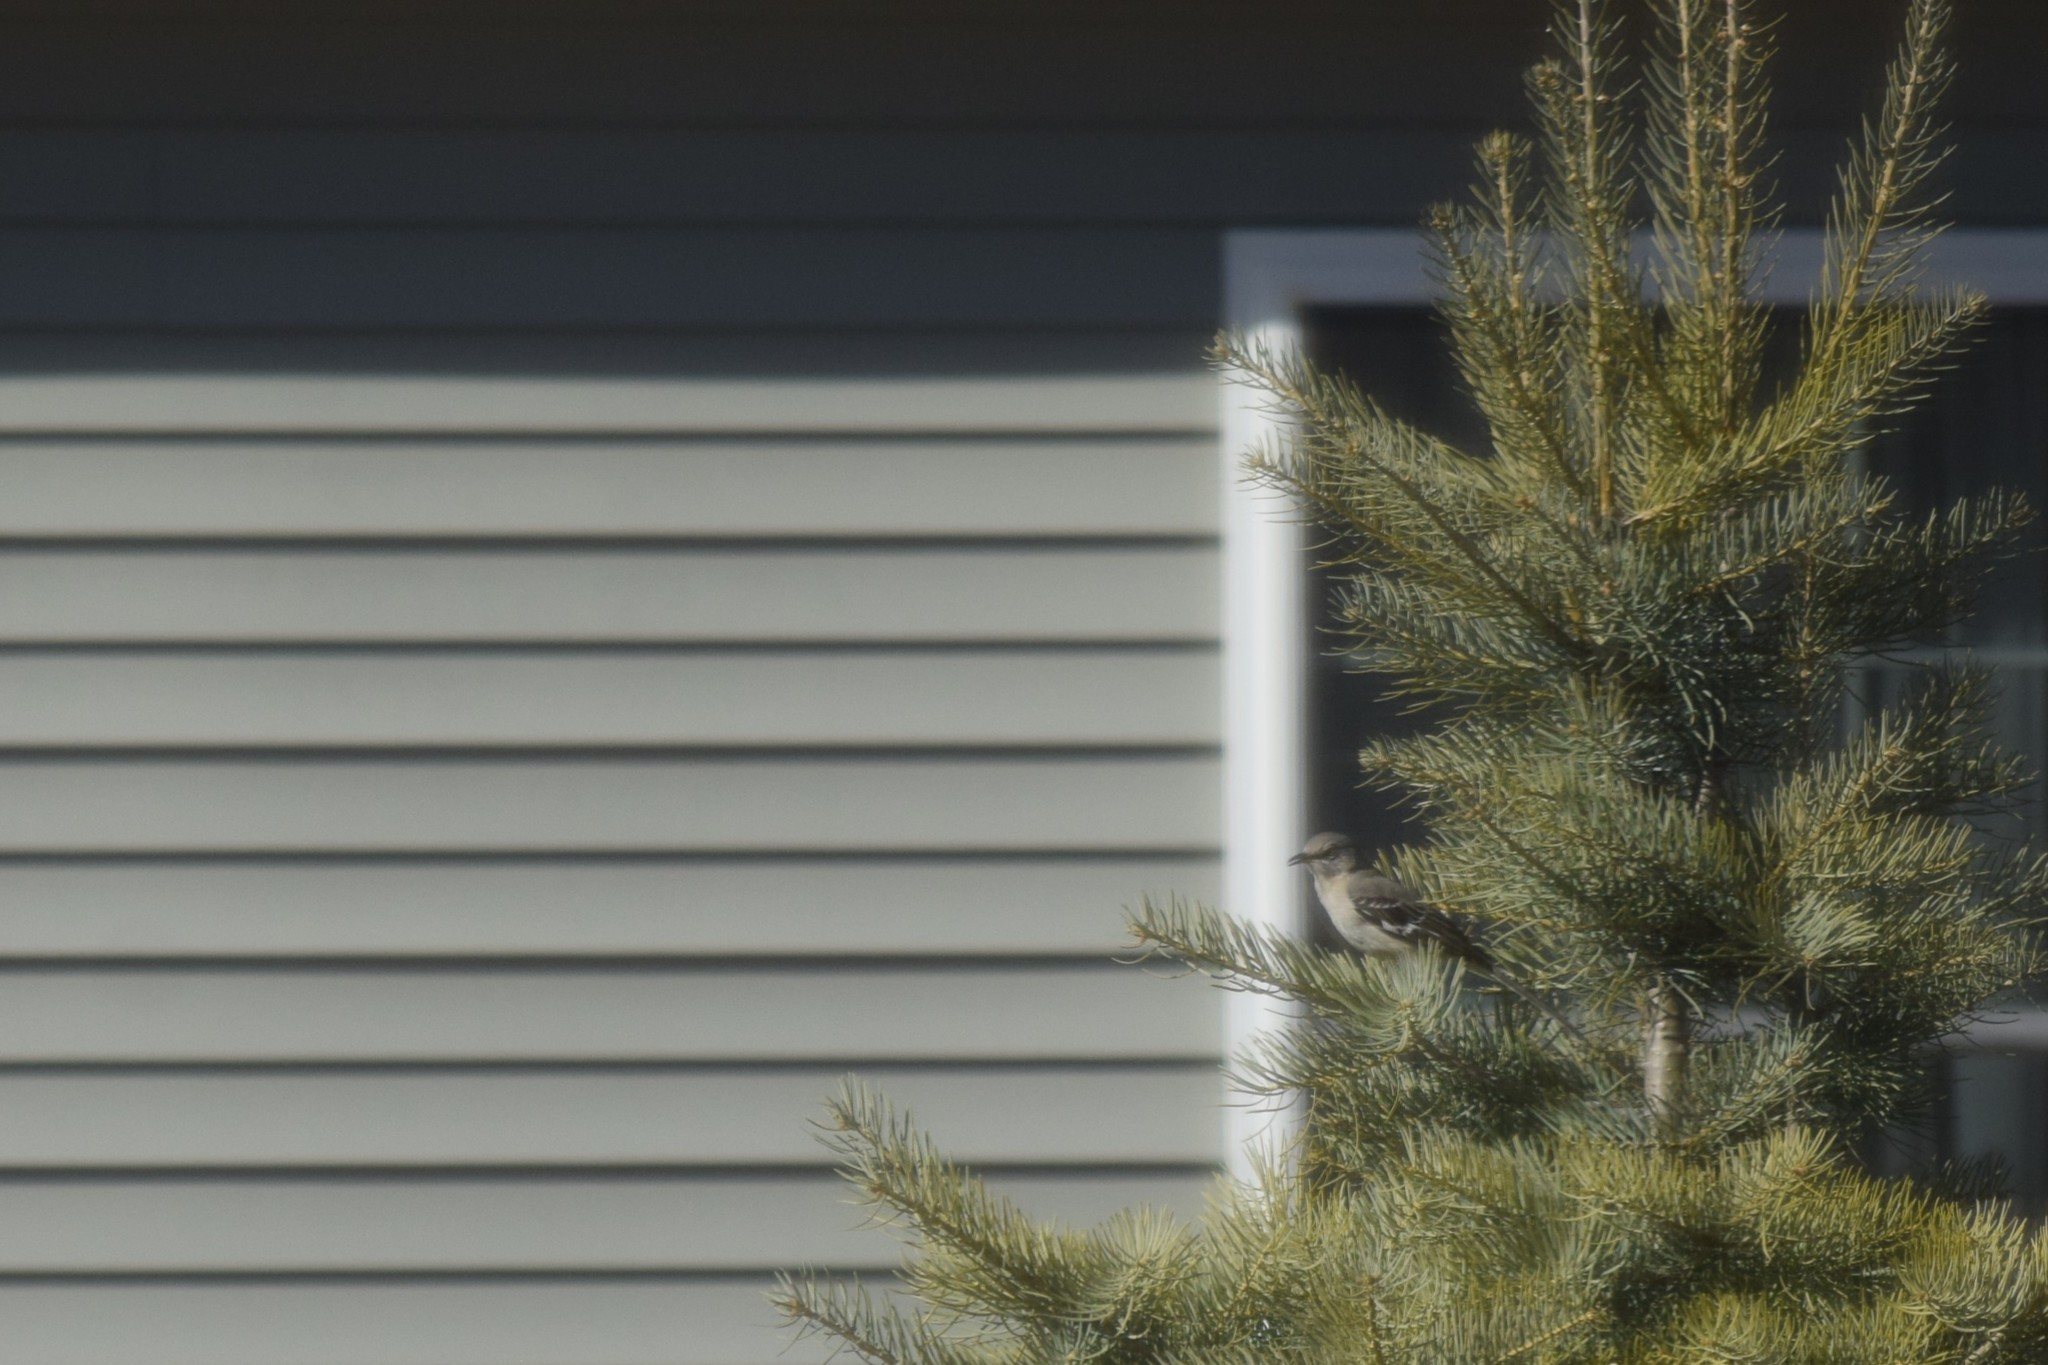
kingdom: Animalia
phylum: Chordata
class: Aves
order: Passeriformes
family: Mimidae
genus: Mimus
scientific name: Mimus polyglottos
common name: Northern mockingbird
